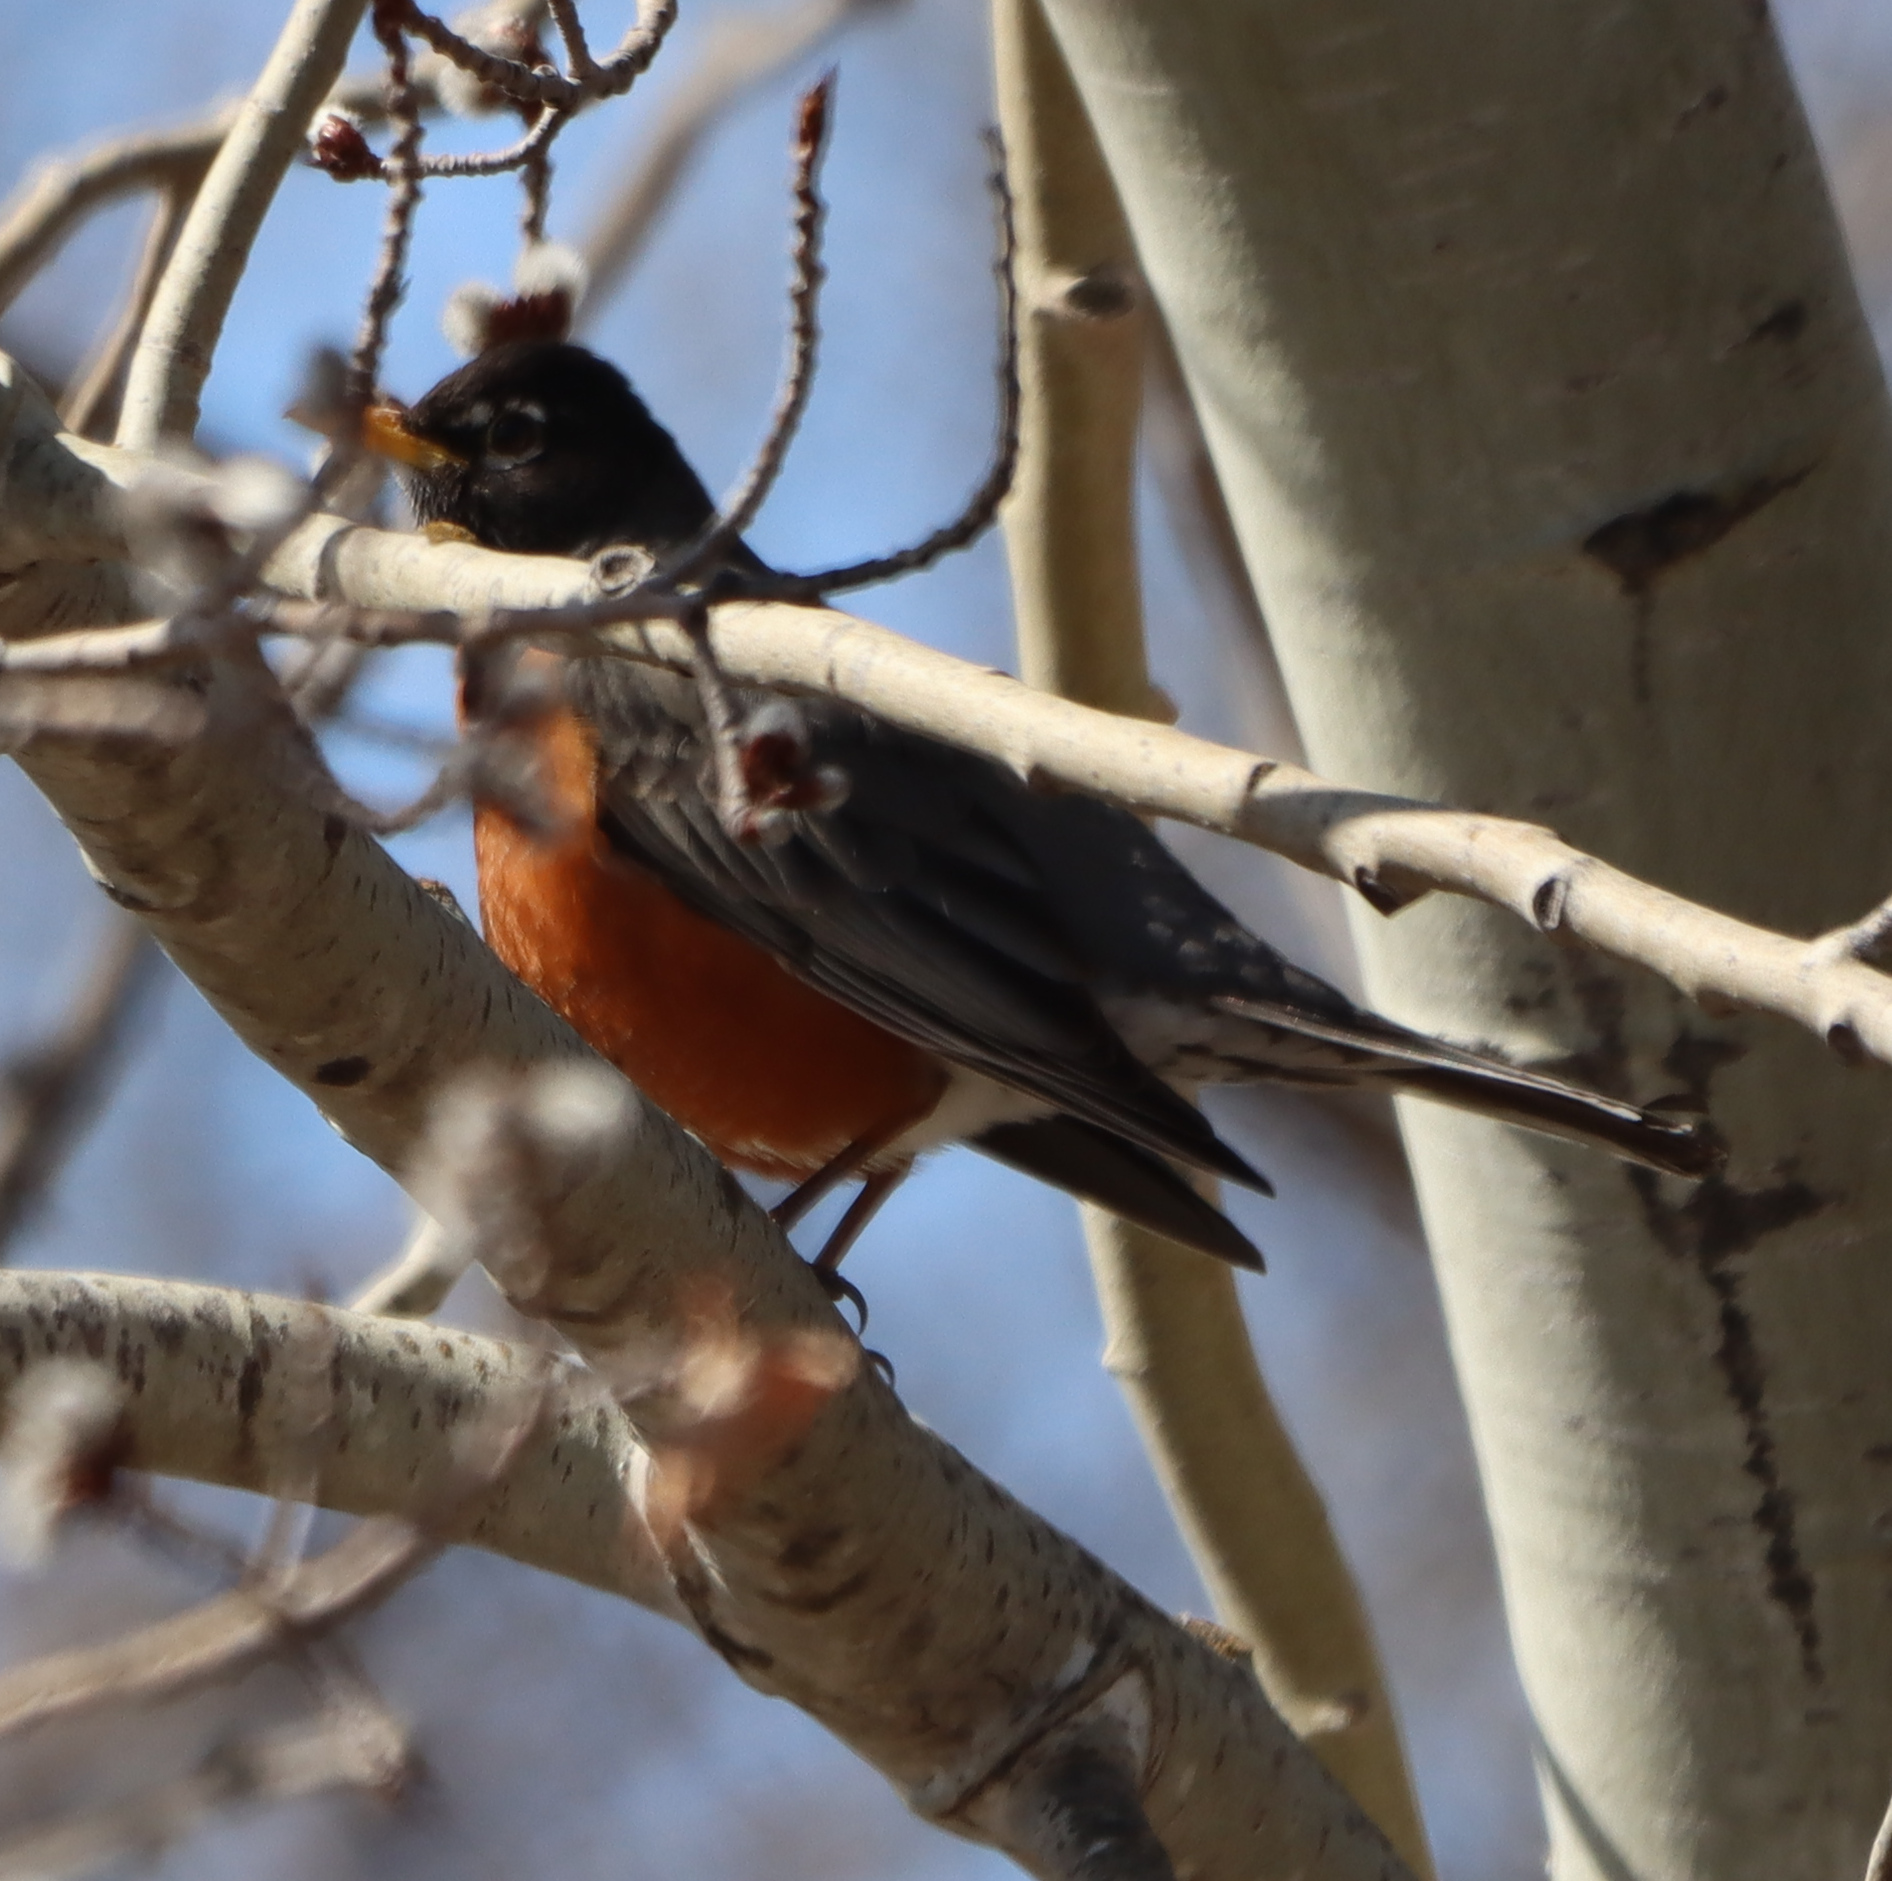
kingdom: Animalia
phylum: Chordata
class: Aves
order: Passeriformes
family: Turdidae
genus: Turdus
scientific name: Turdus migratorius
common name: American robin
